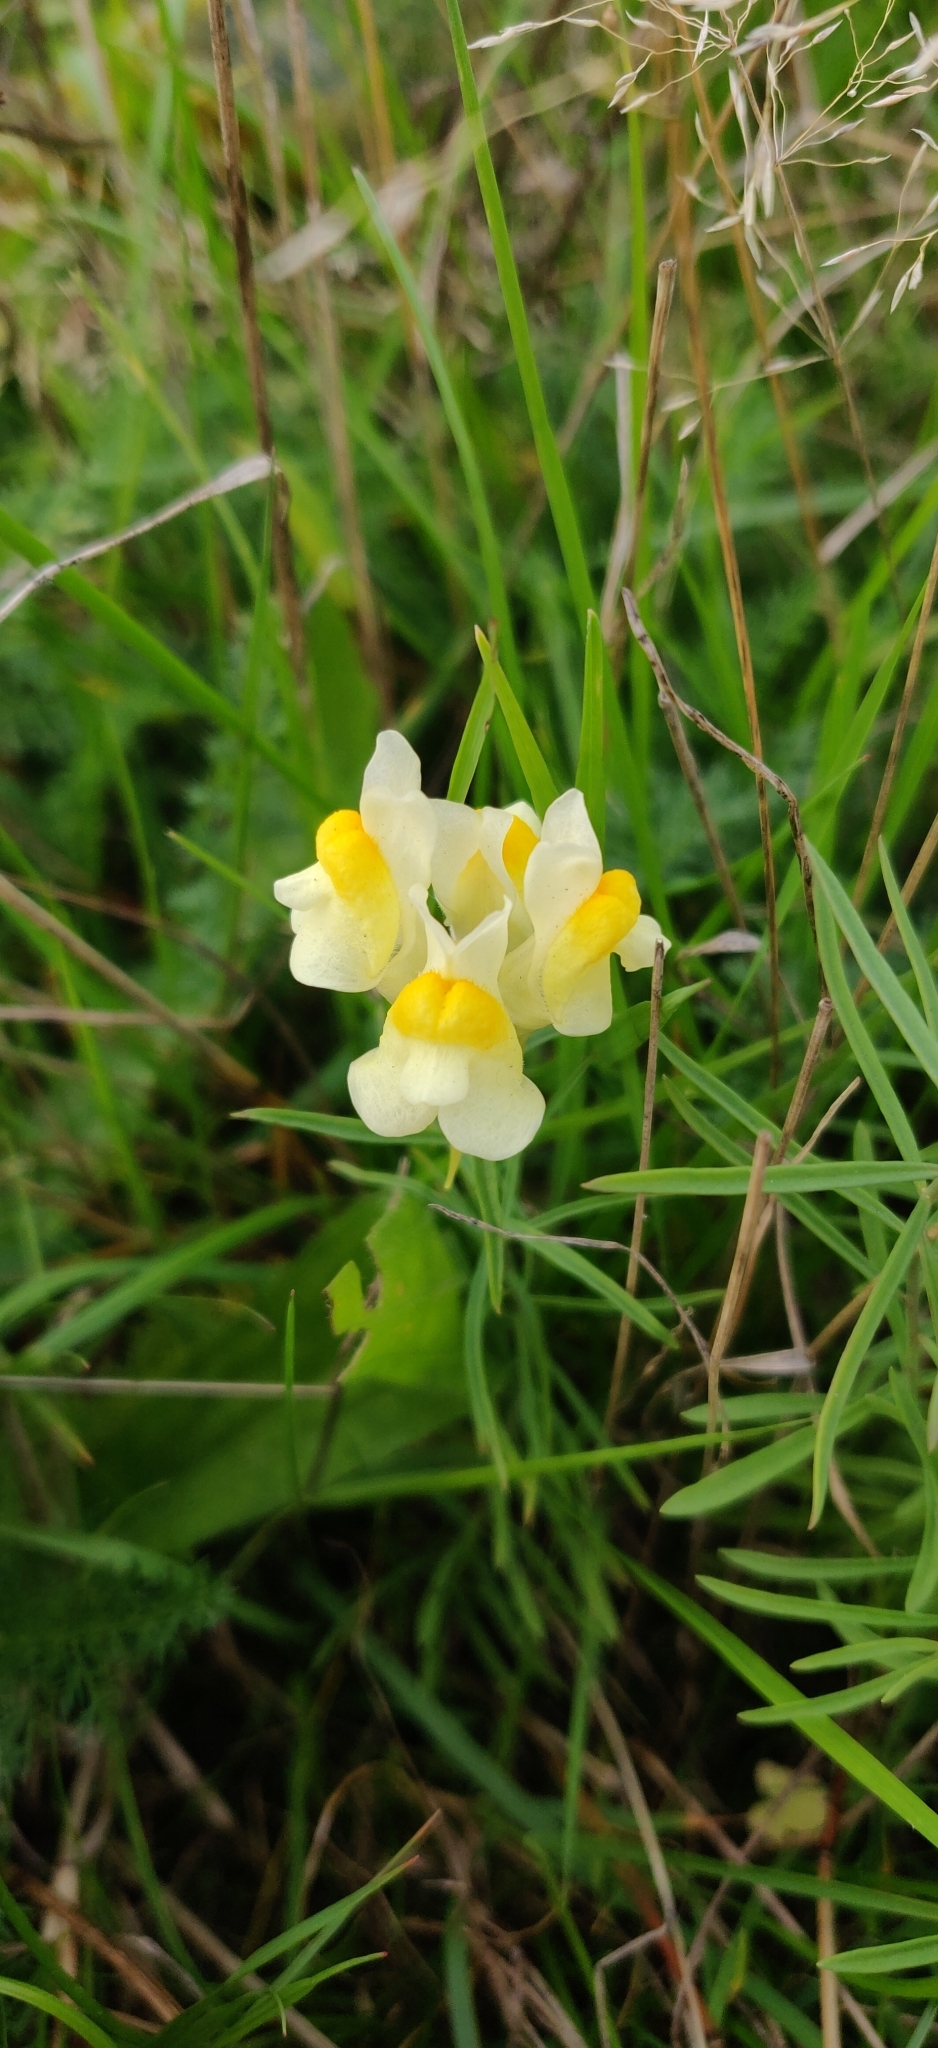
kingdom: Plantae
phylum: Tracheophyta
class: Magnoliopsida
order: Lamiales
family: Plantaginaceae
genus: Linaria
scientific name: Linaria vulgaris
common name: Butter and eggs
